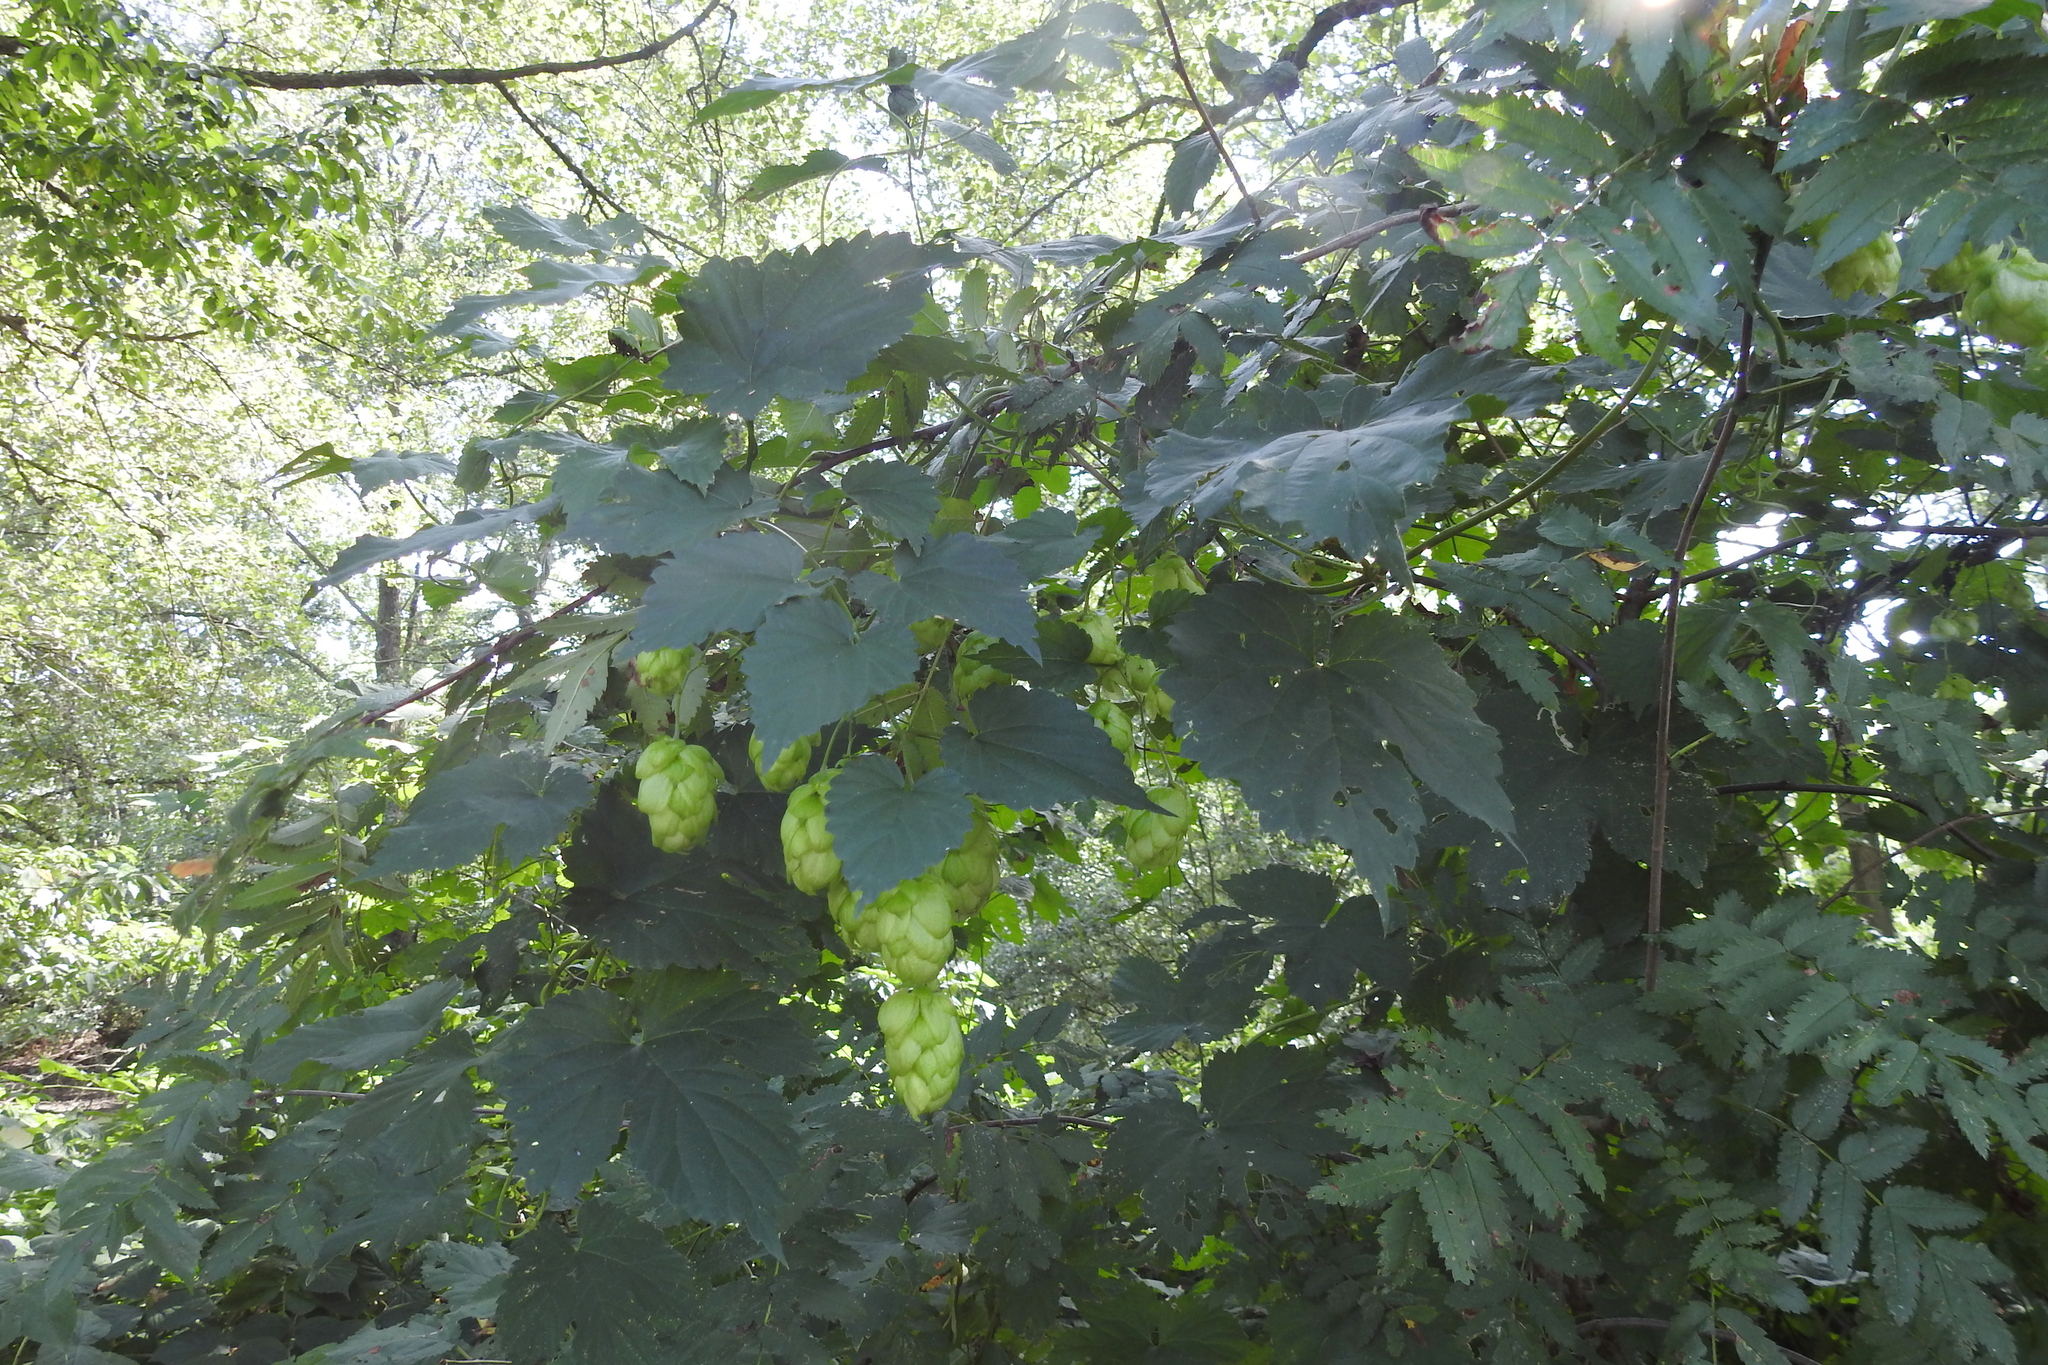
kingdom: Plantae
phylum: Tracheophyta
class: Magnoliopsida
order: Rosales
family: Cannabaceae
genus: Humulus
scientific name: Humulus lupulus
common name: Hop
